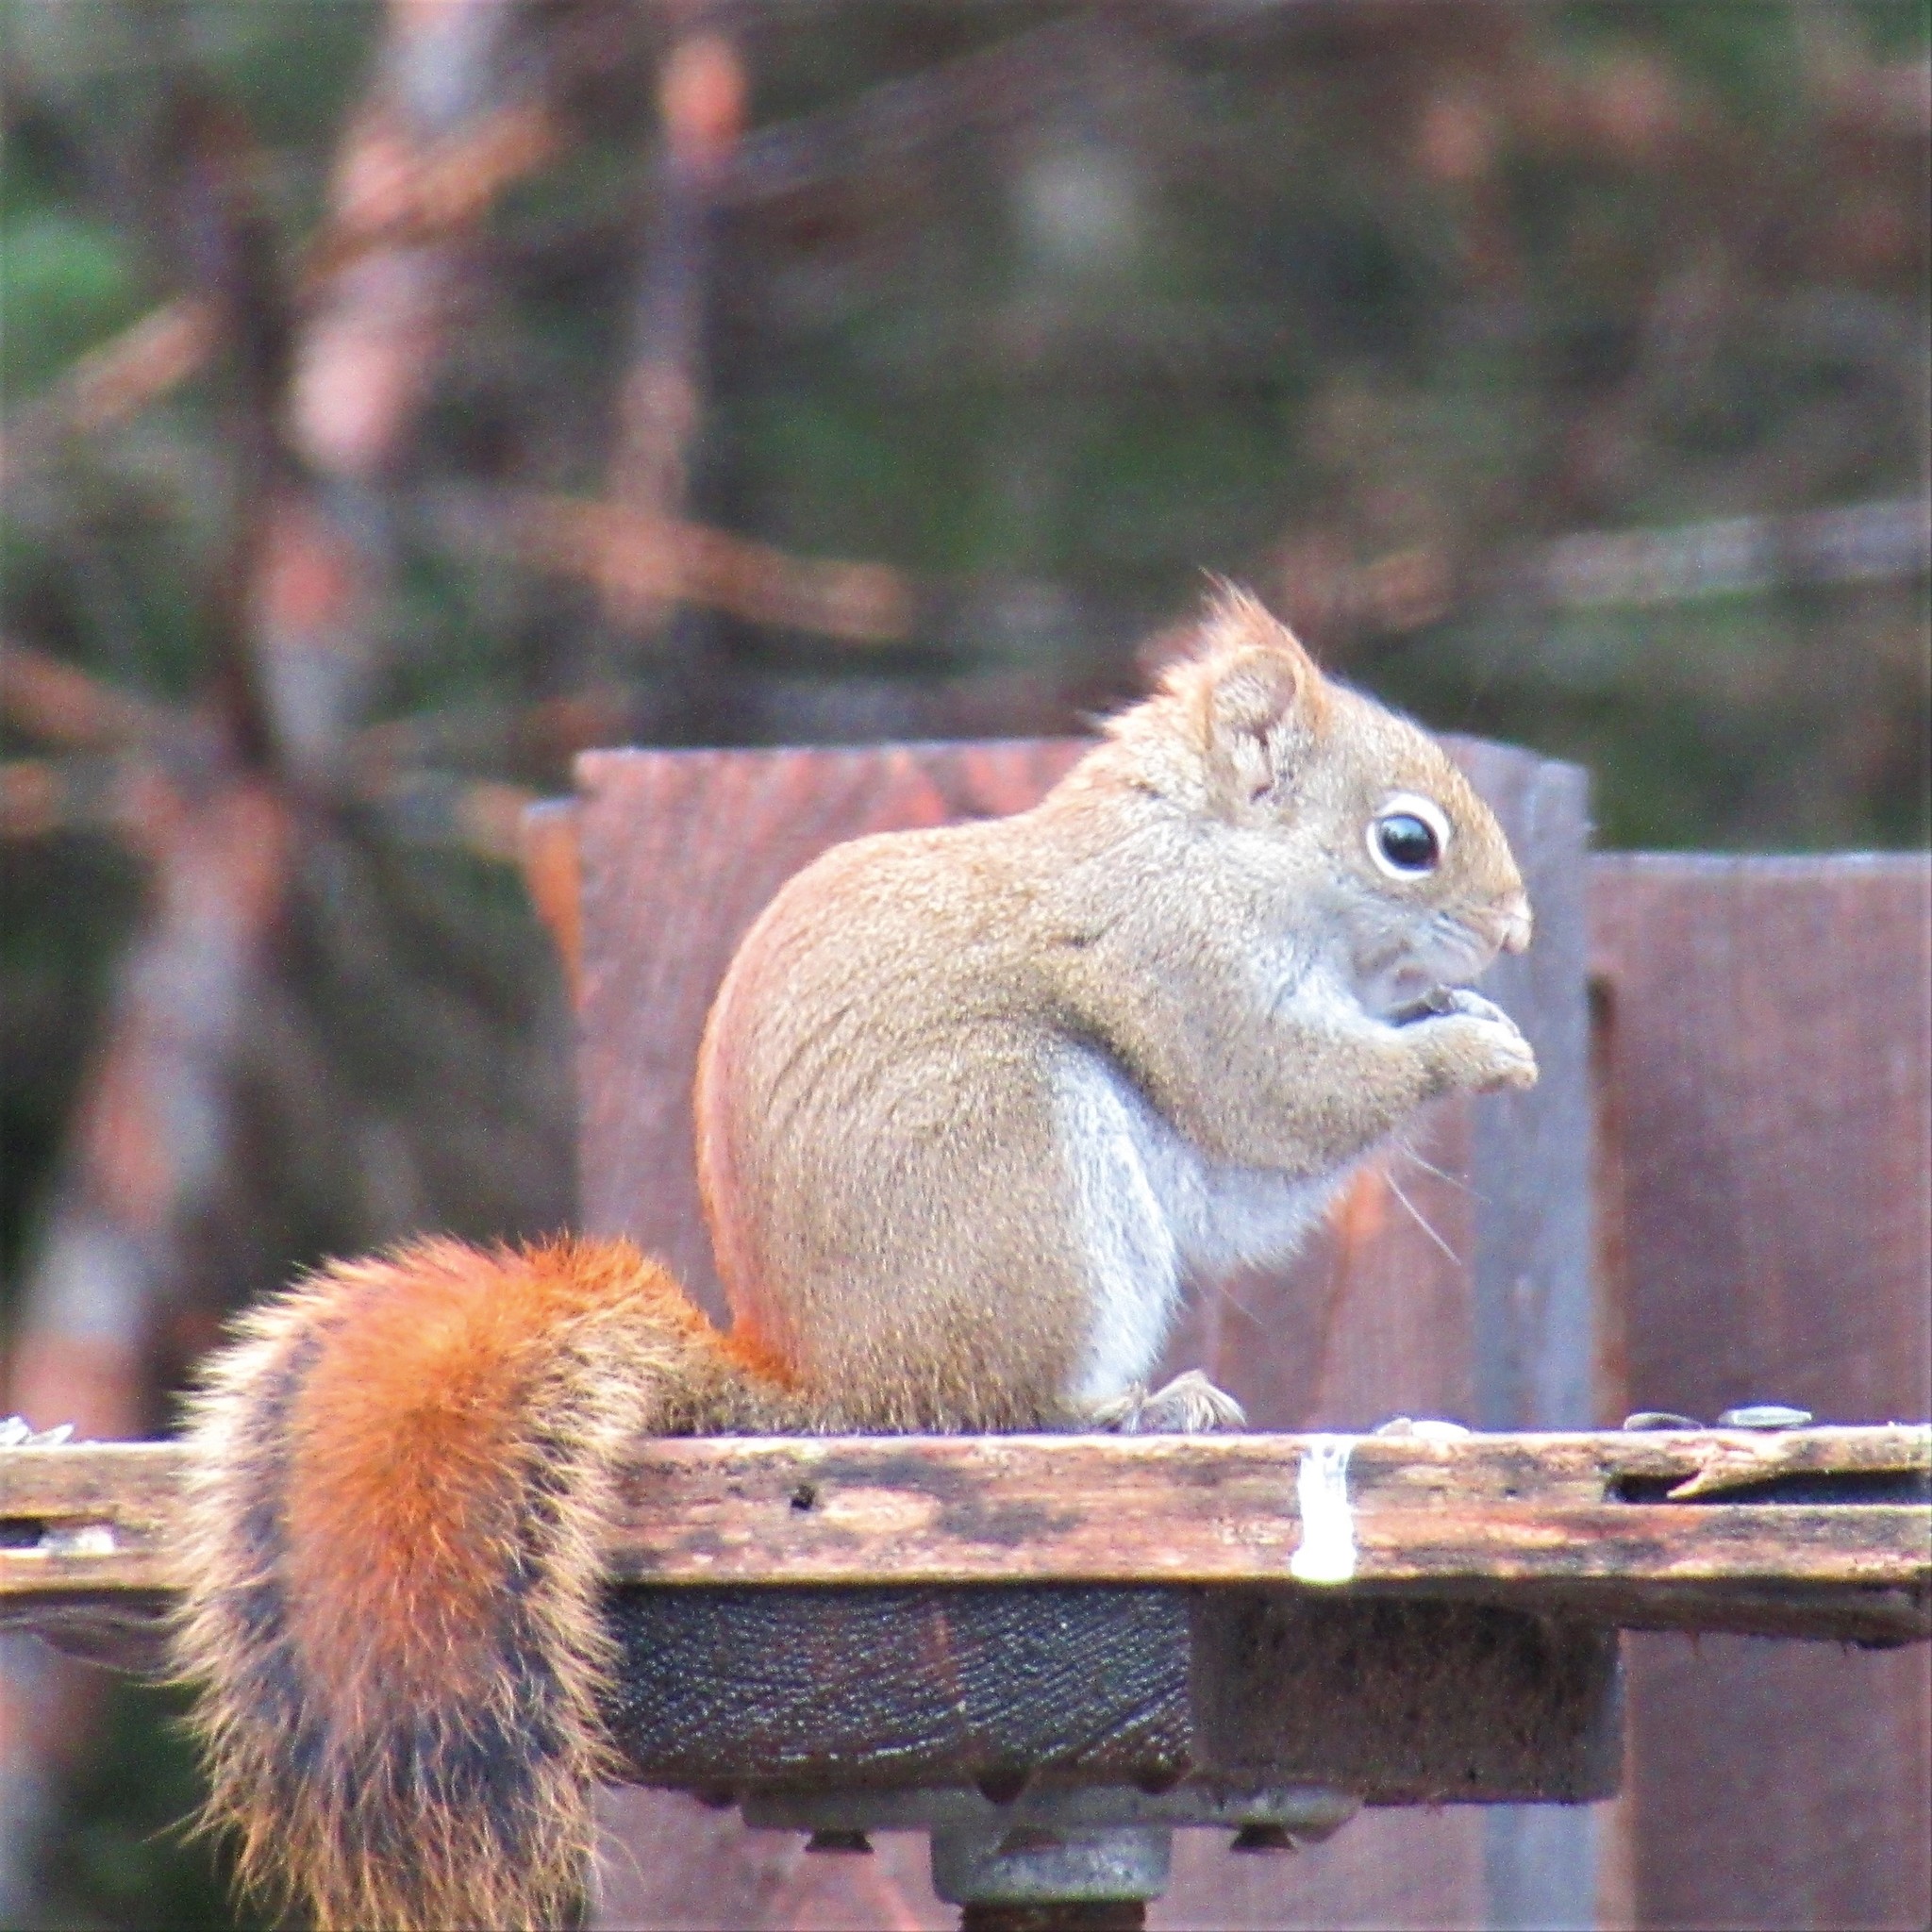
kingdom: Animalia
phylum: Chordata
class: Mammalia
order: Rodentia
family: Sciuridae
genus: Tamiasciurus
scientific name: Tamiasciurus hudsonicus
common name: Red squirrel
